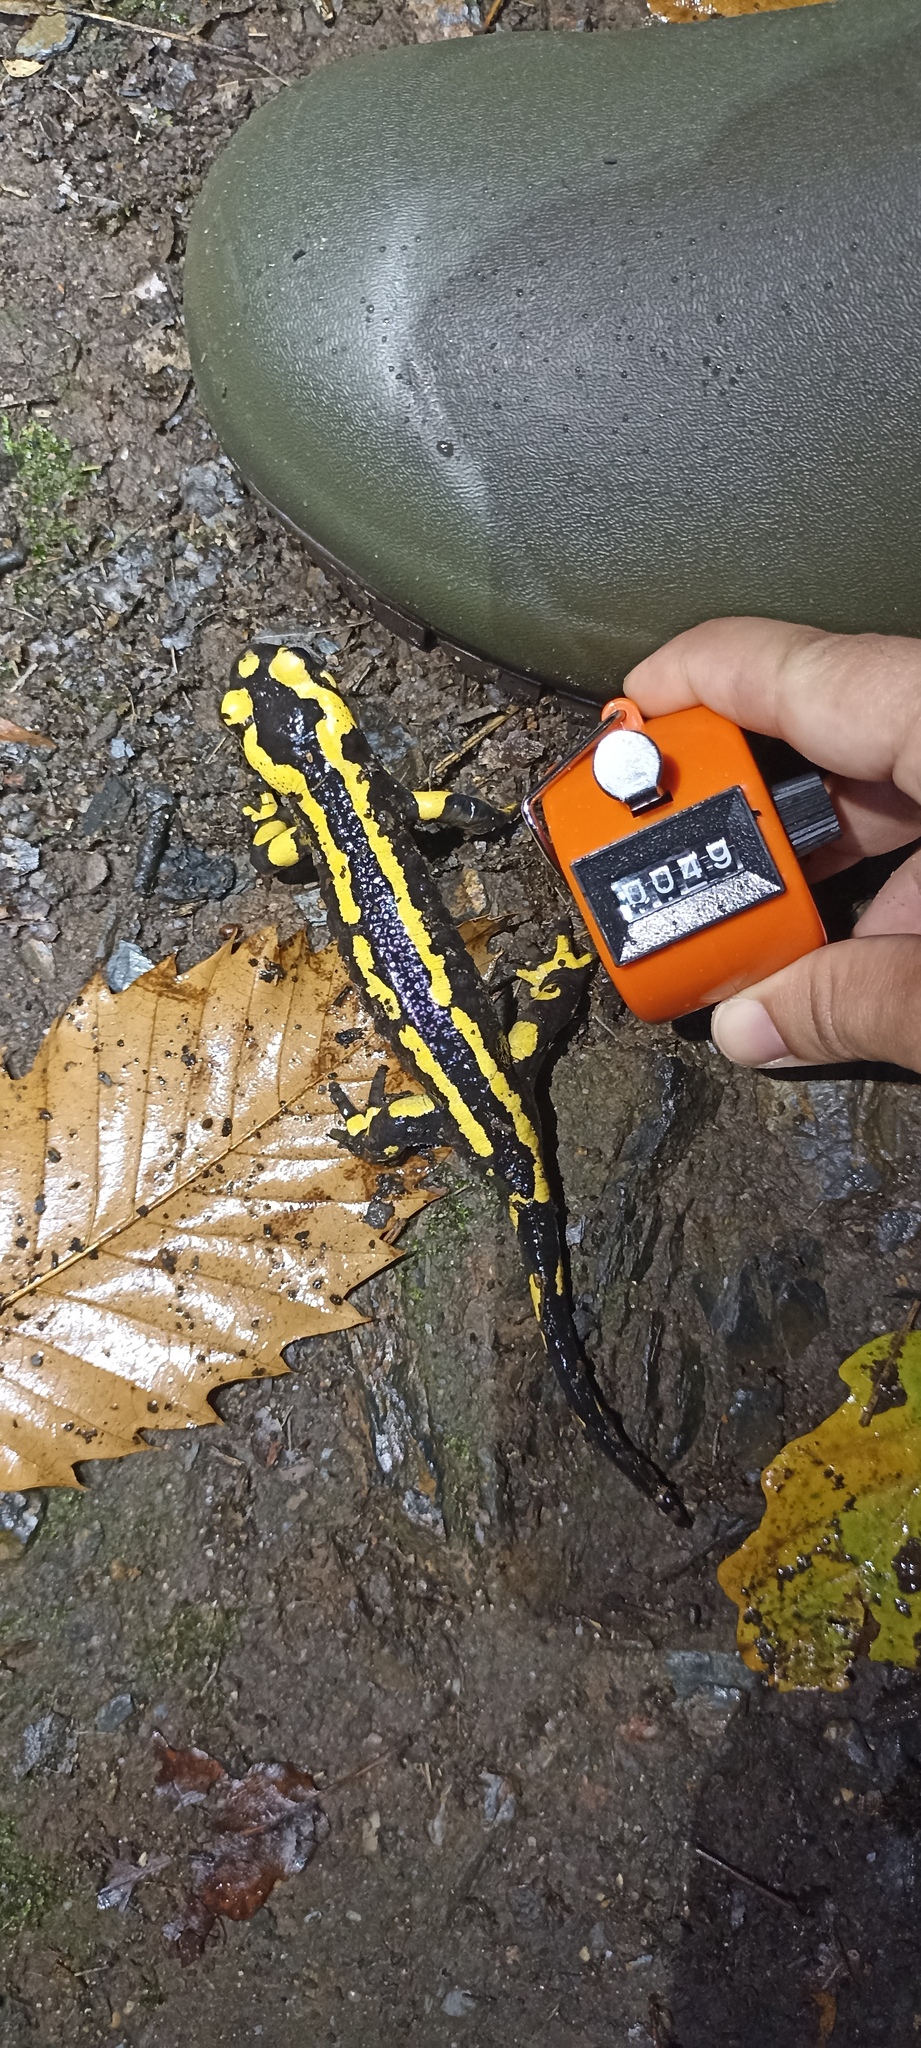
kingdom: Animalia
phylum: Chordata
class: Amphibia
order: Caudata
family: Salamandridae
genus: Salamandra
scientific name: Salamandra salamandra
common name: Fire salamander
